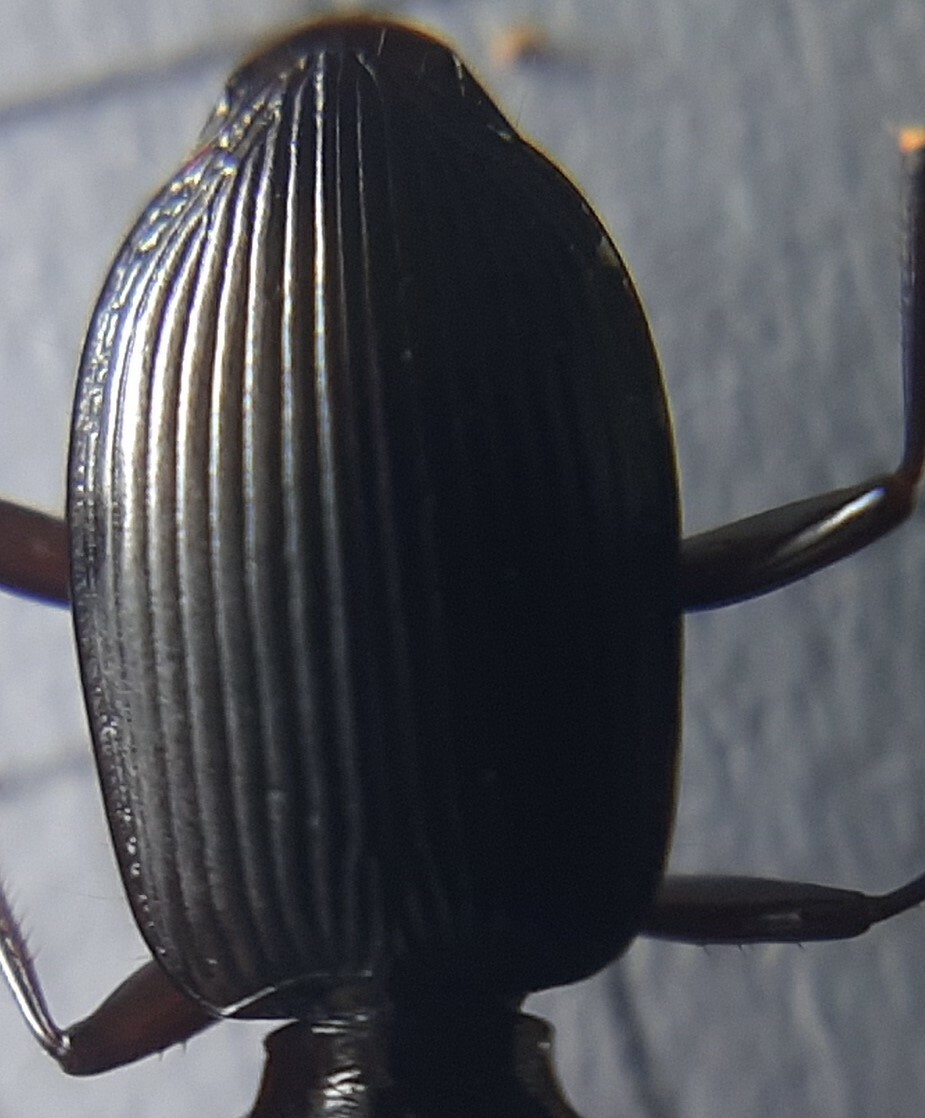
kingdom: Animalia
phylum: Arthropoda
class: Insecta
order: Coleoptera
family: Carabidae
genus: Platynus
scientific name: Platynus assimilis
